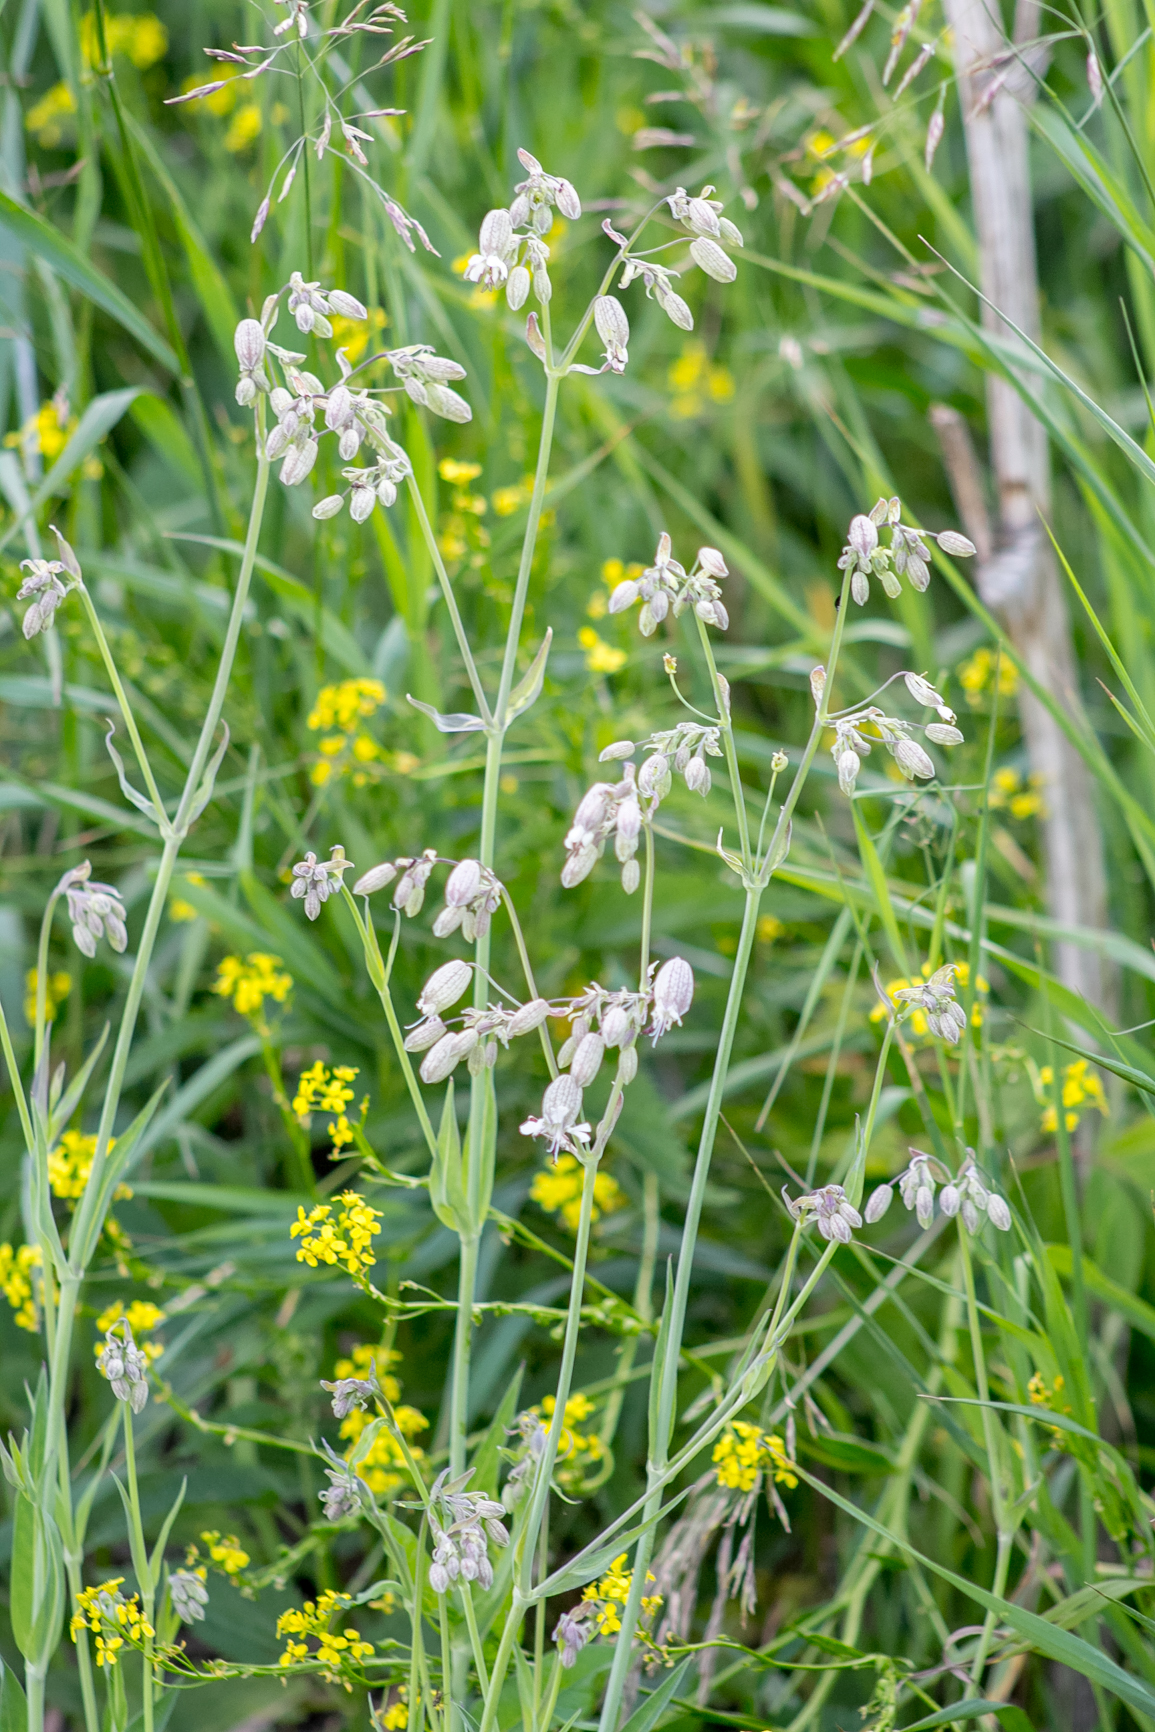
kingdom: Plantae
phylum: Tracheophyta
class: Magnoliopsida
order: Caryophyllales
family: Caryophyllaceae
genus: Silene
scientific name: Silene vulgaris
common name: Bladder campion
